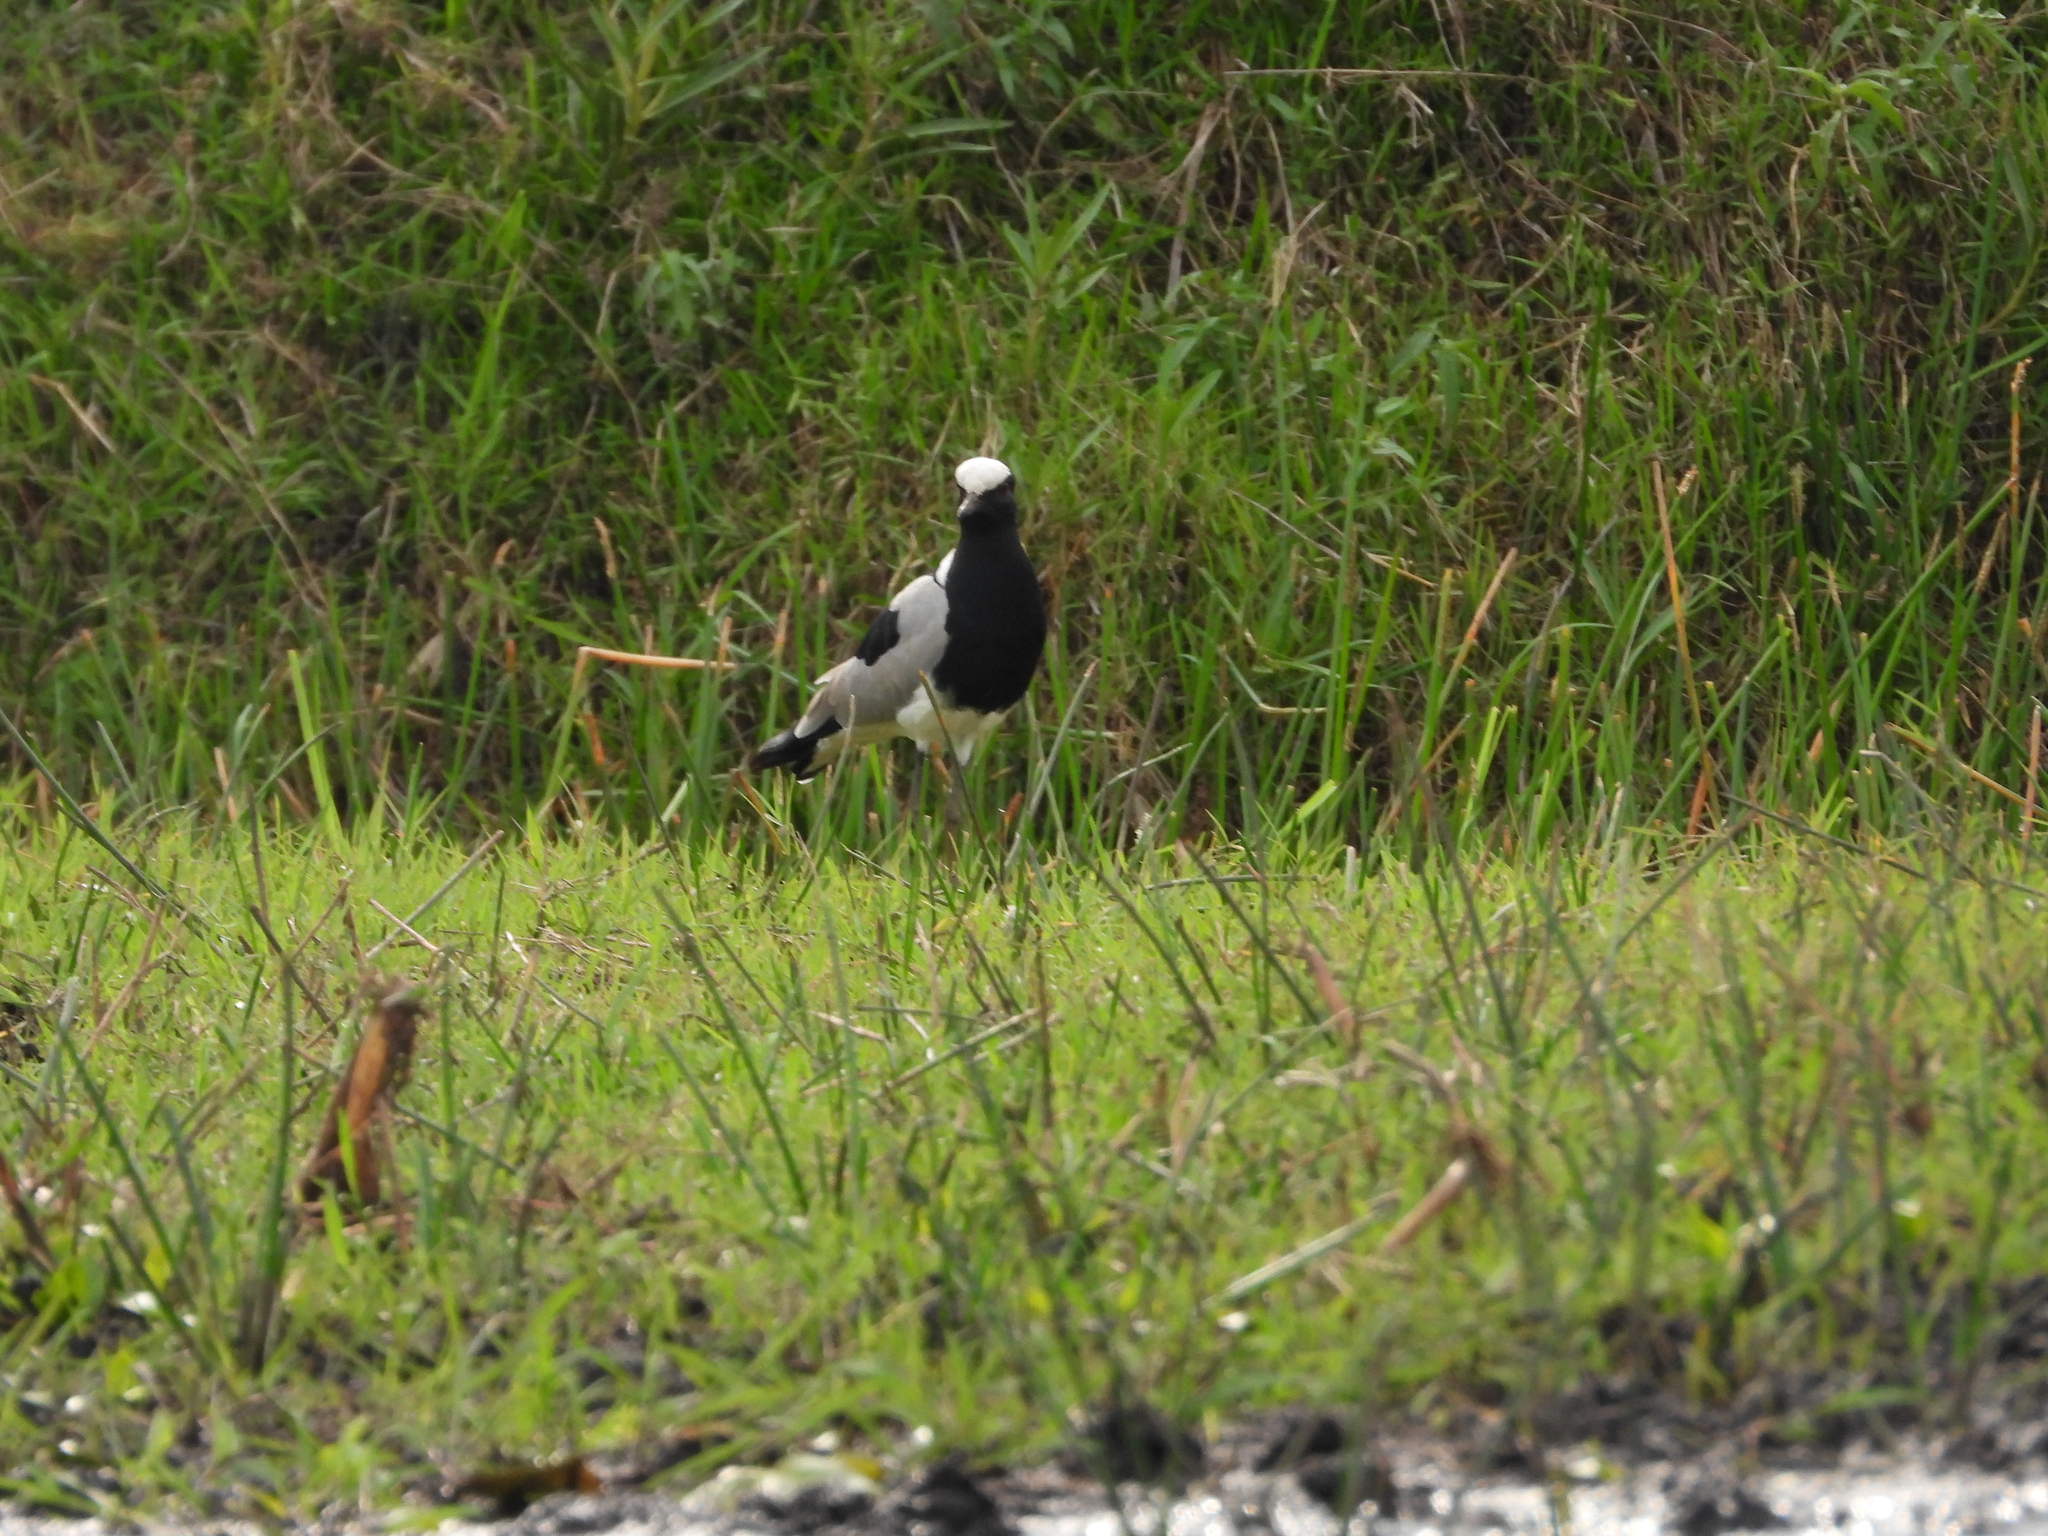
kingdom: Animalia
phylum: Chordata
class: Aves
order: Charadriiformes
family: Charadriidae
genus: Vanellus
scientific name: Vanellus armatus
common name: Blacksmith lapwing
